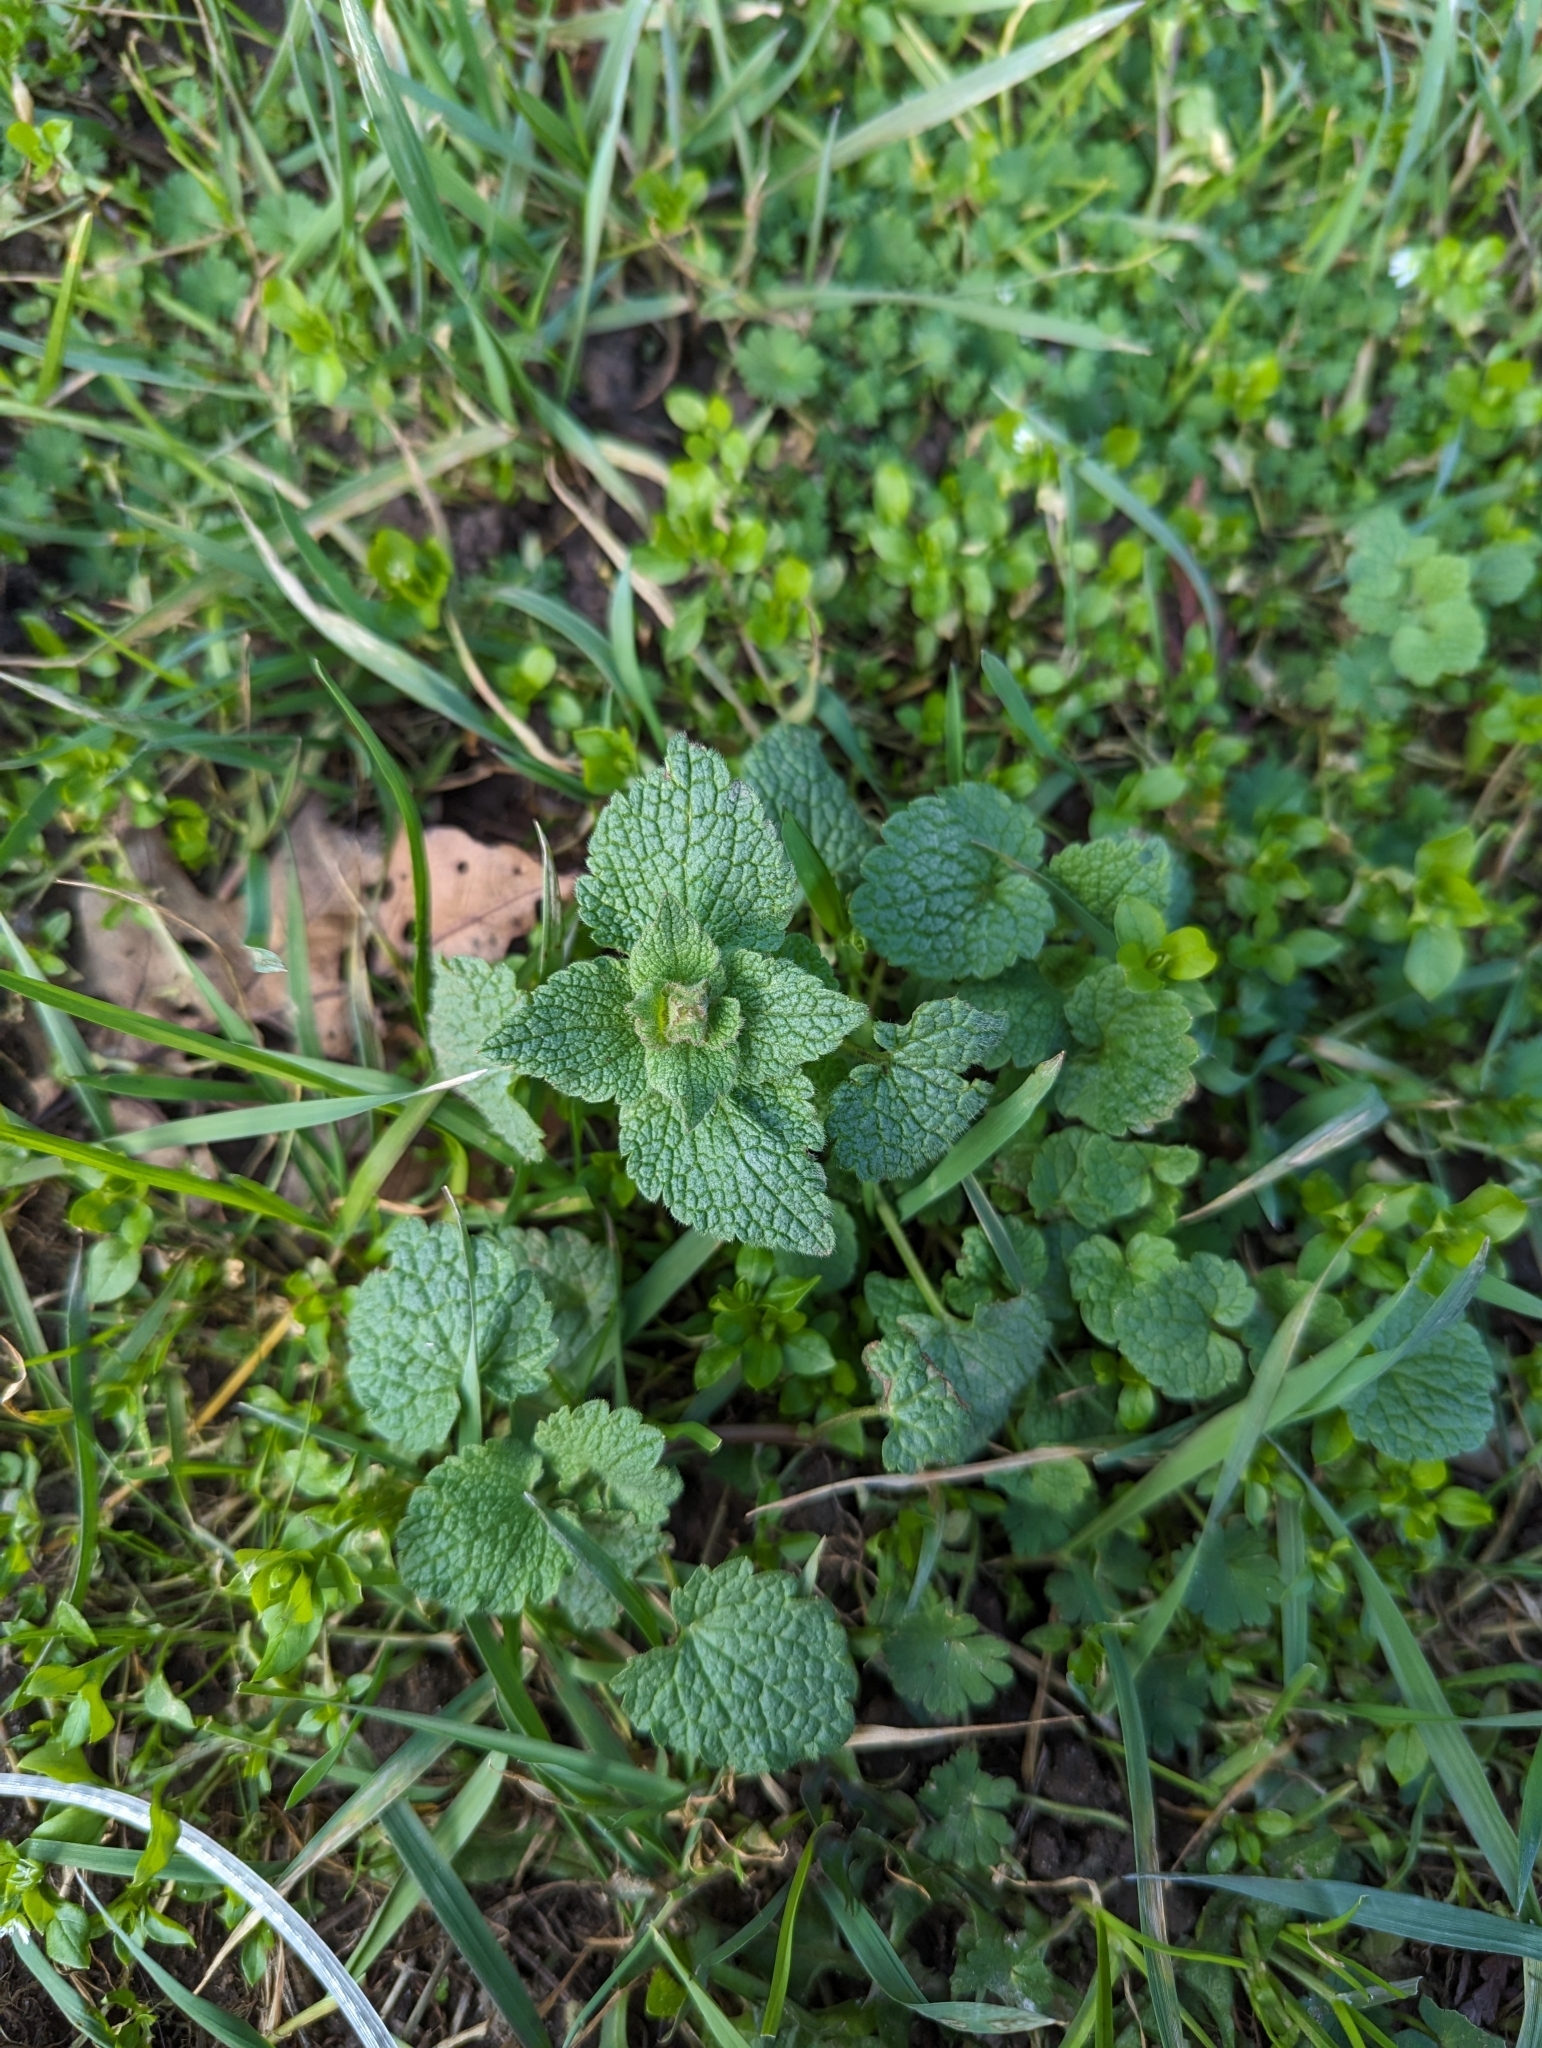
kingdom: Plantae
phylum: Tracheophyta
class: Magnoliopsida
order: Lamiales
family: Lamiaceae
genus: Lamium
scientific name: Lamium purpureum
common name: Red dead-nettle
